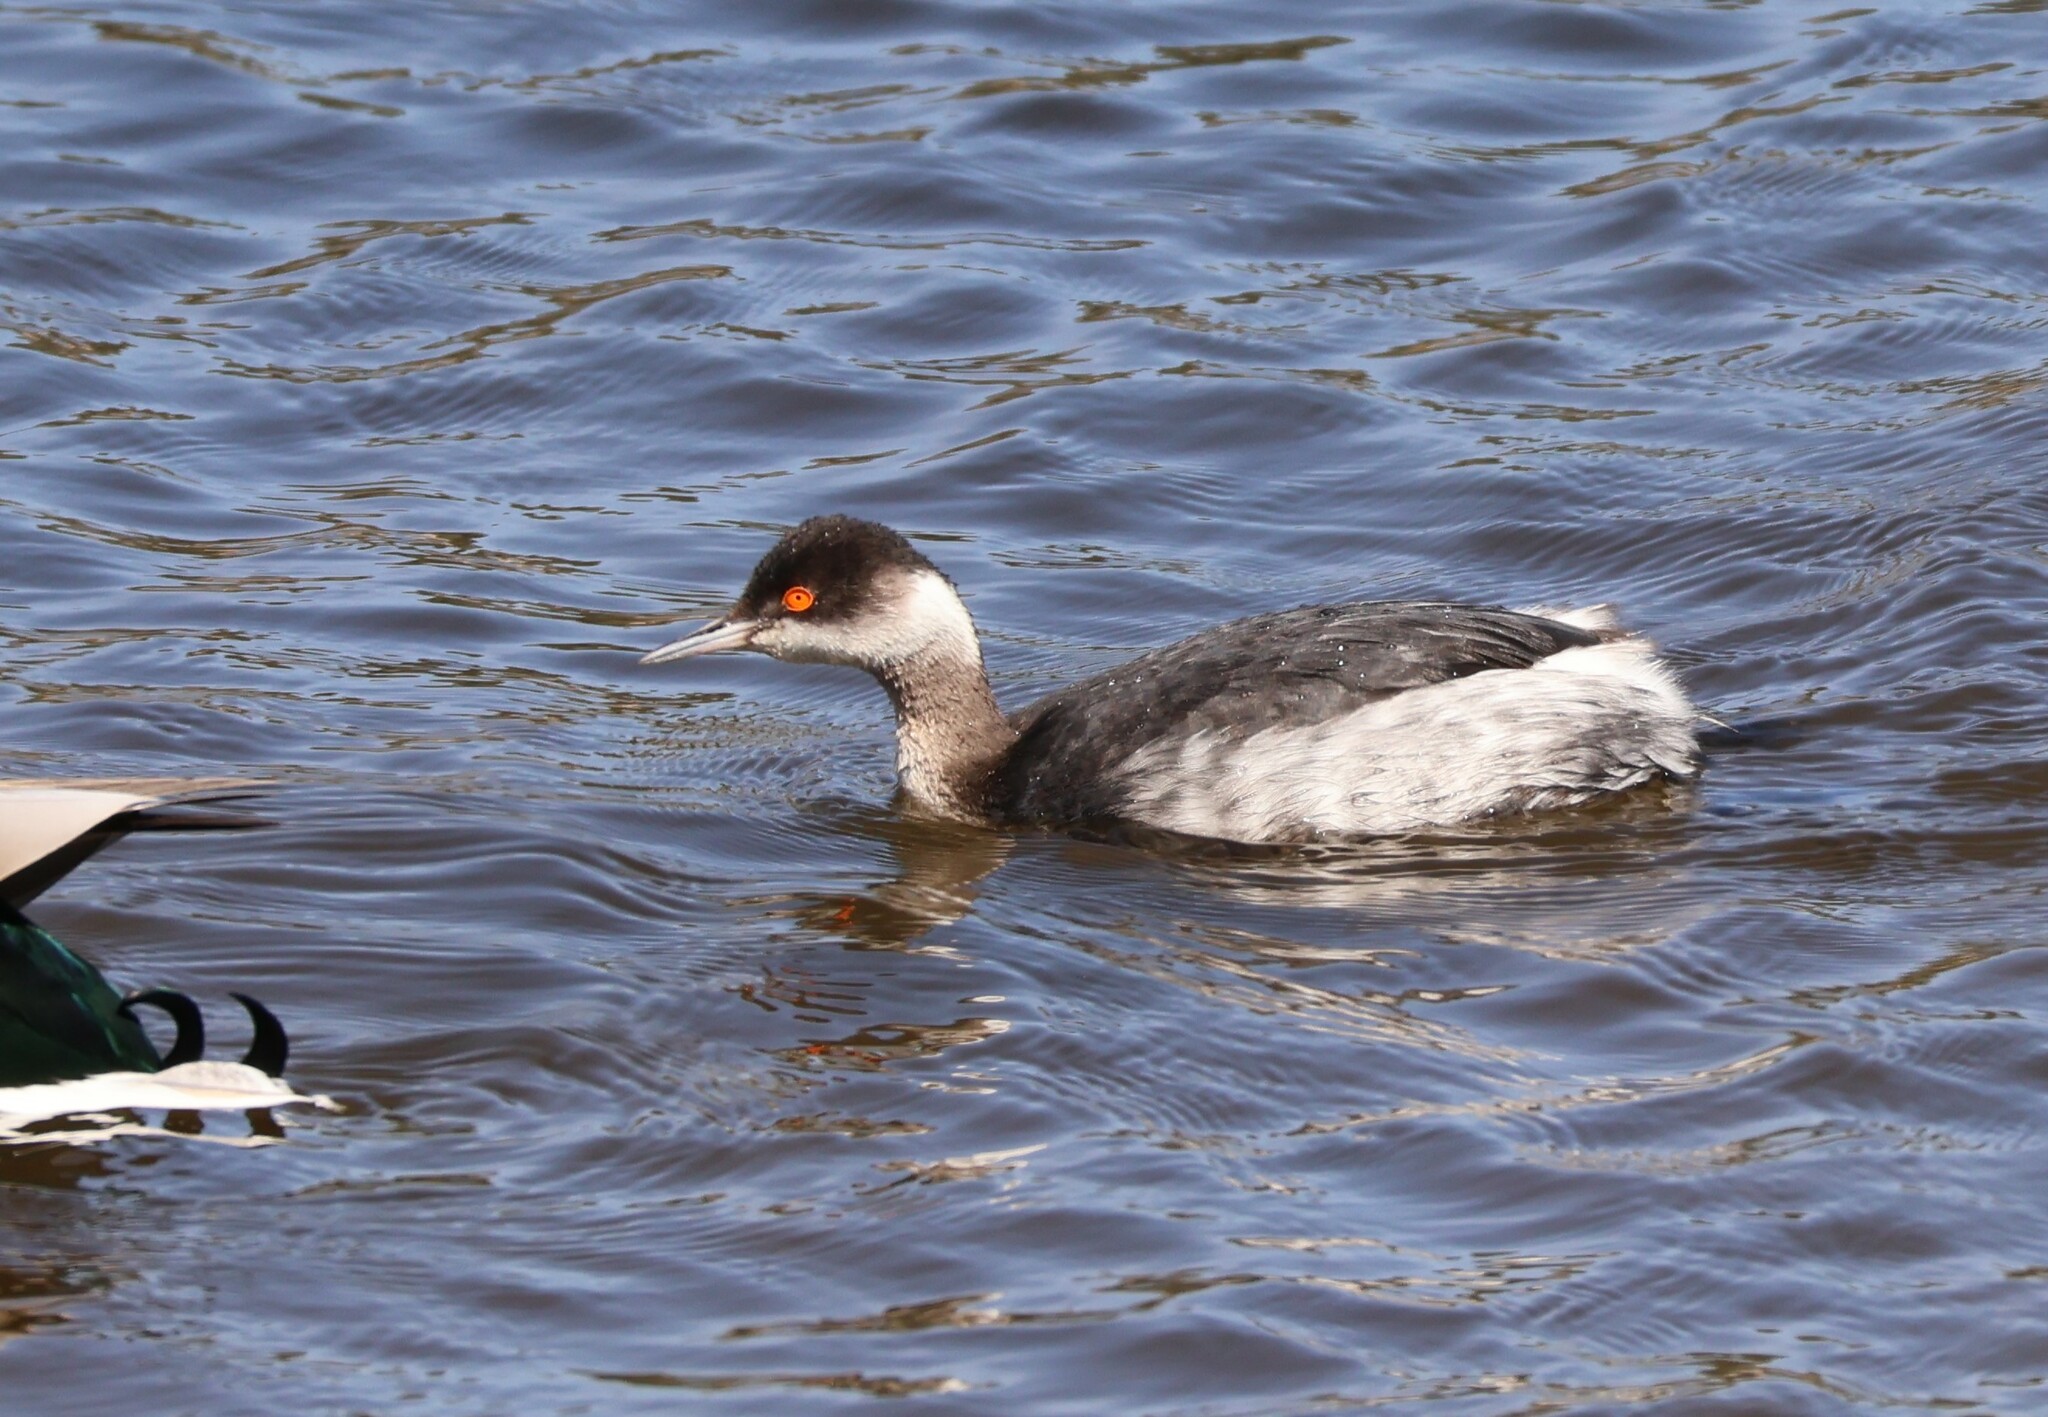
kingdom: Animalia
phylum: Chordata
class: Aves
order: Podicipediformes
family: Podicipedidae
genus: Podiceps
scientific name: Podiceps nigricollis
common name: Black-necked grebe
